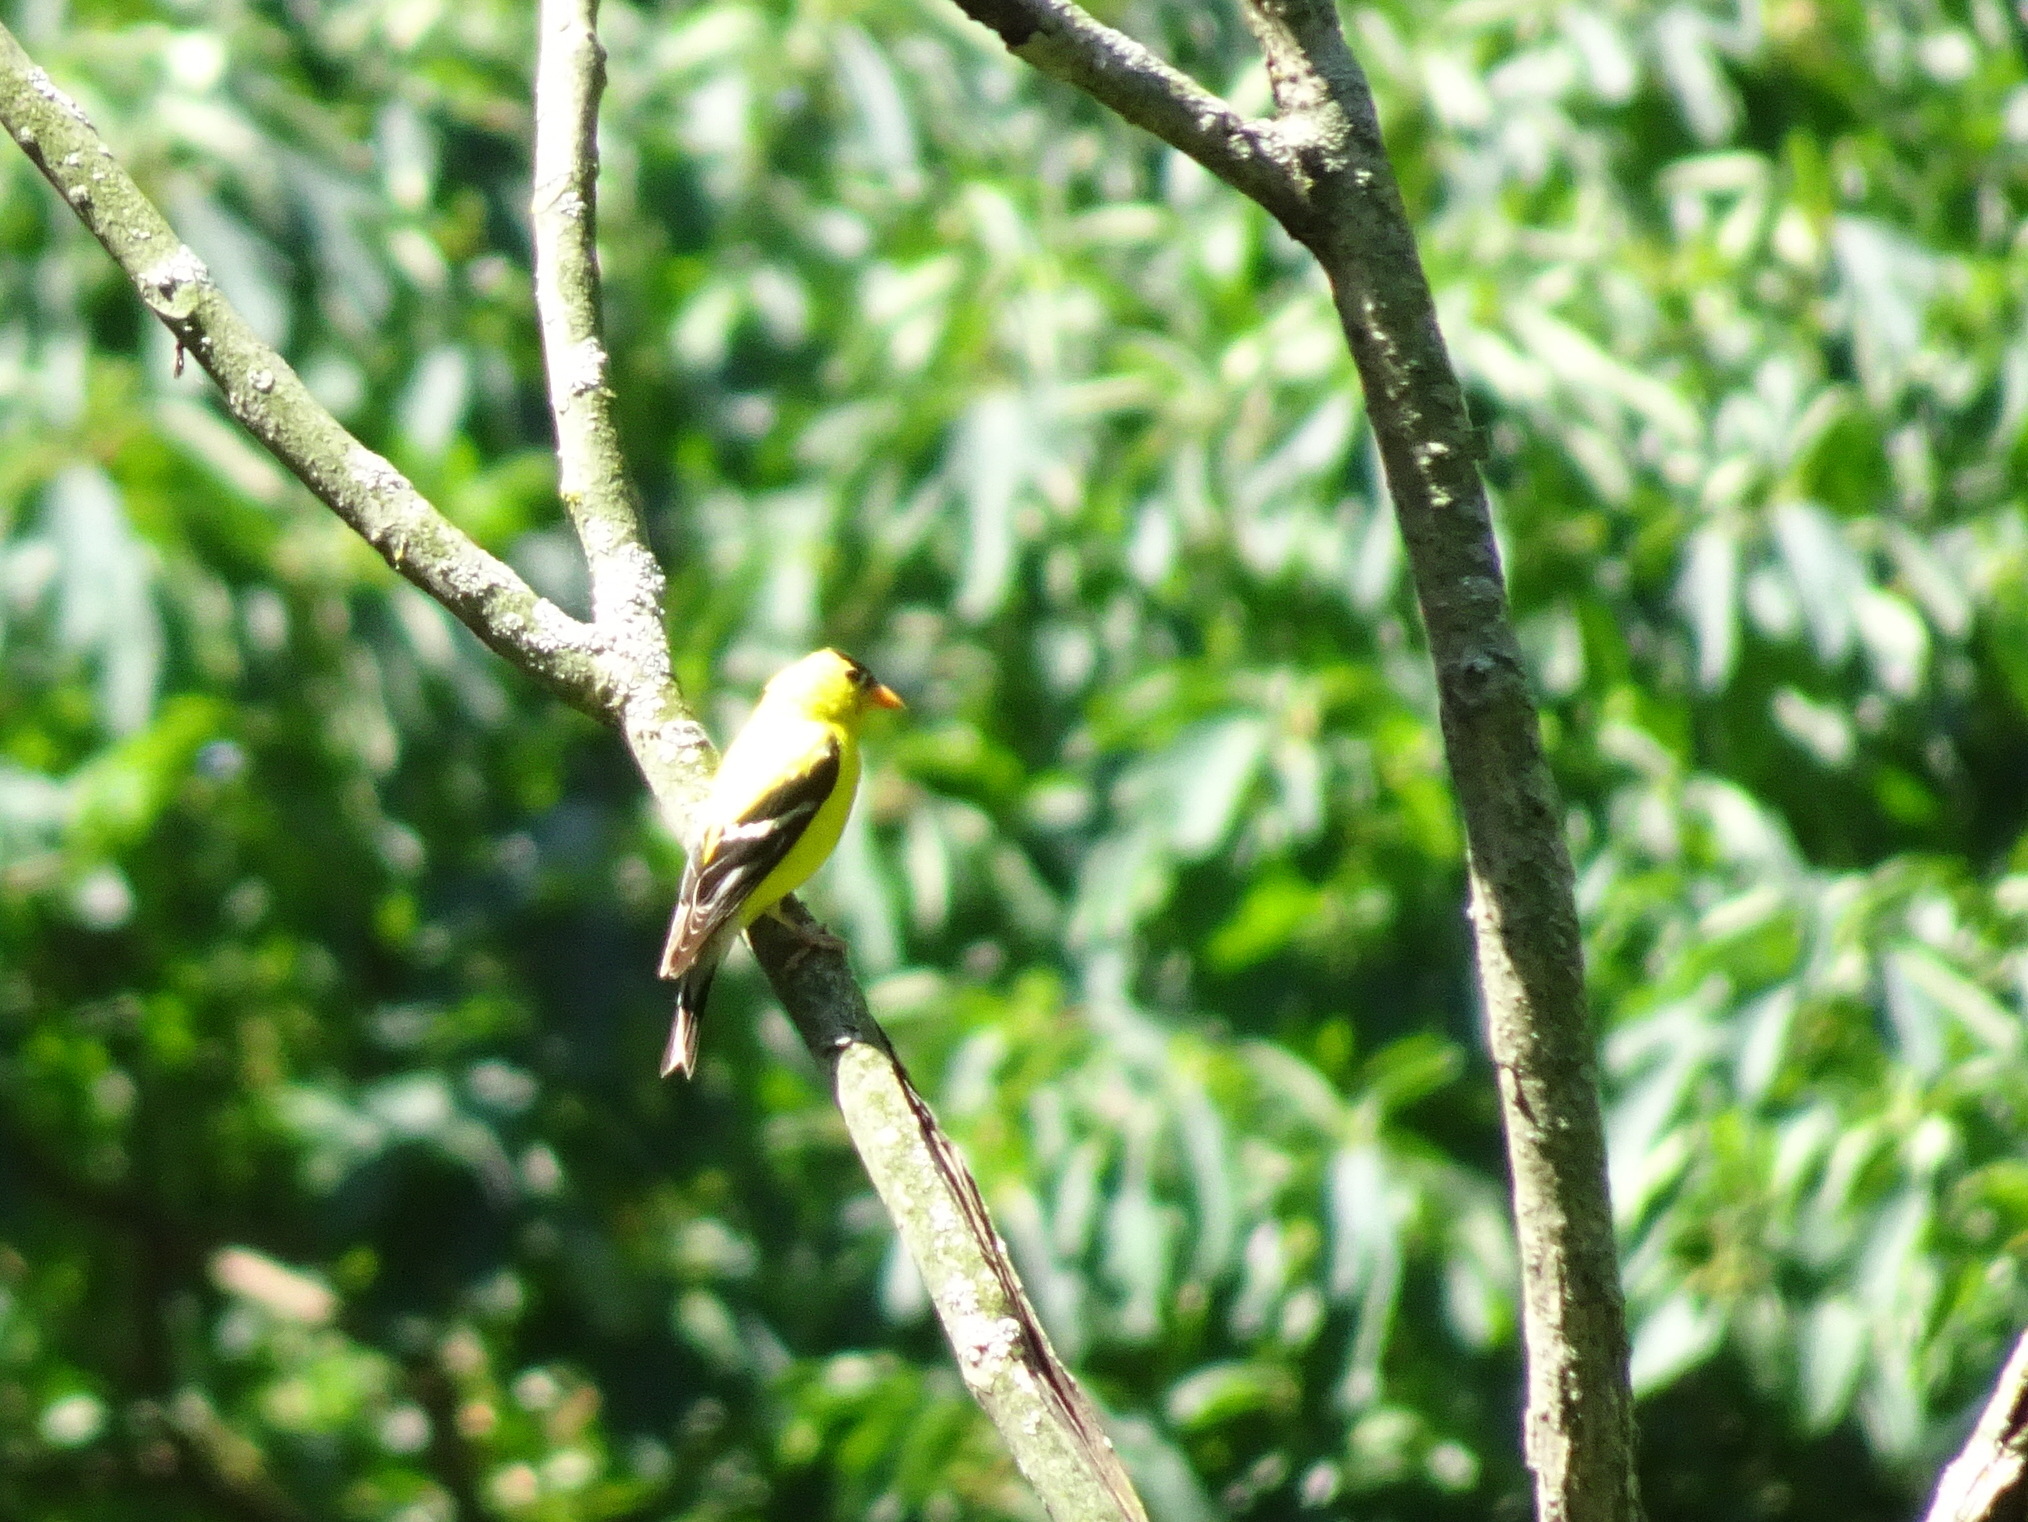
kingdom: Animalia
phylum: Chordata
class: Aves
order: Passeriformes
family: Fringillidae
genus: Spinus
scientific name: Spinus tristis
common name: American goldfinch
